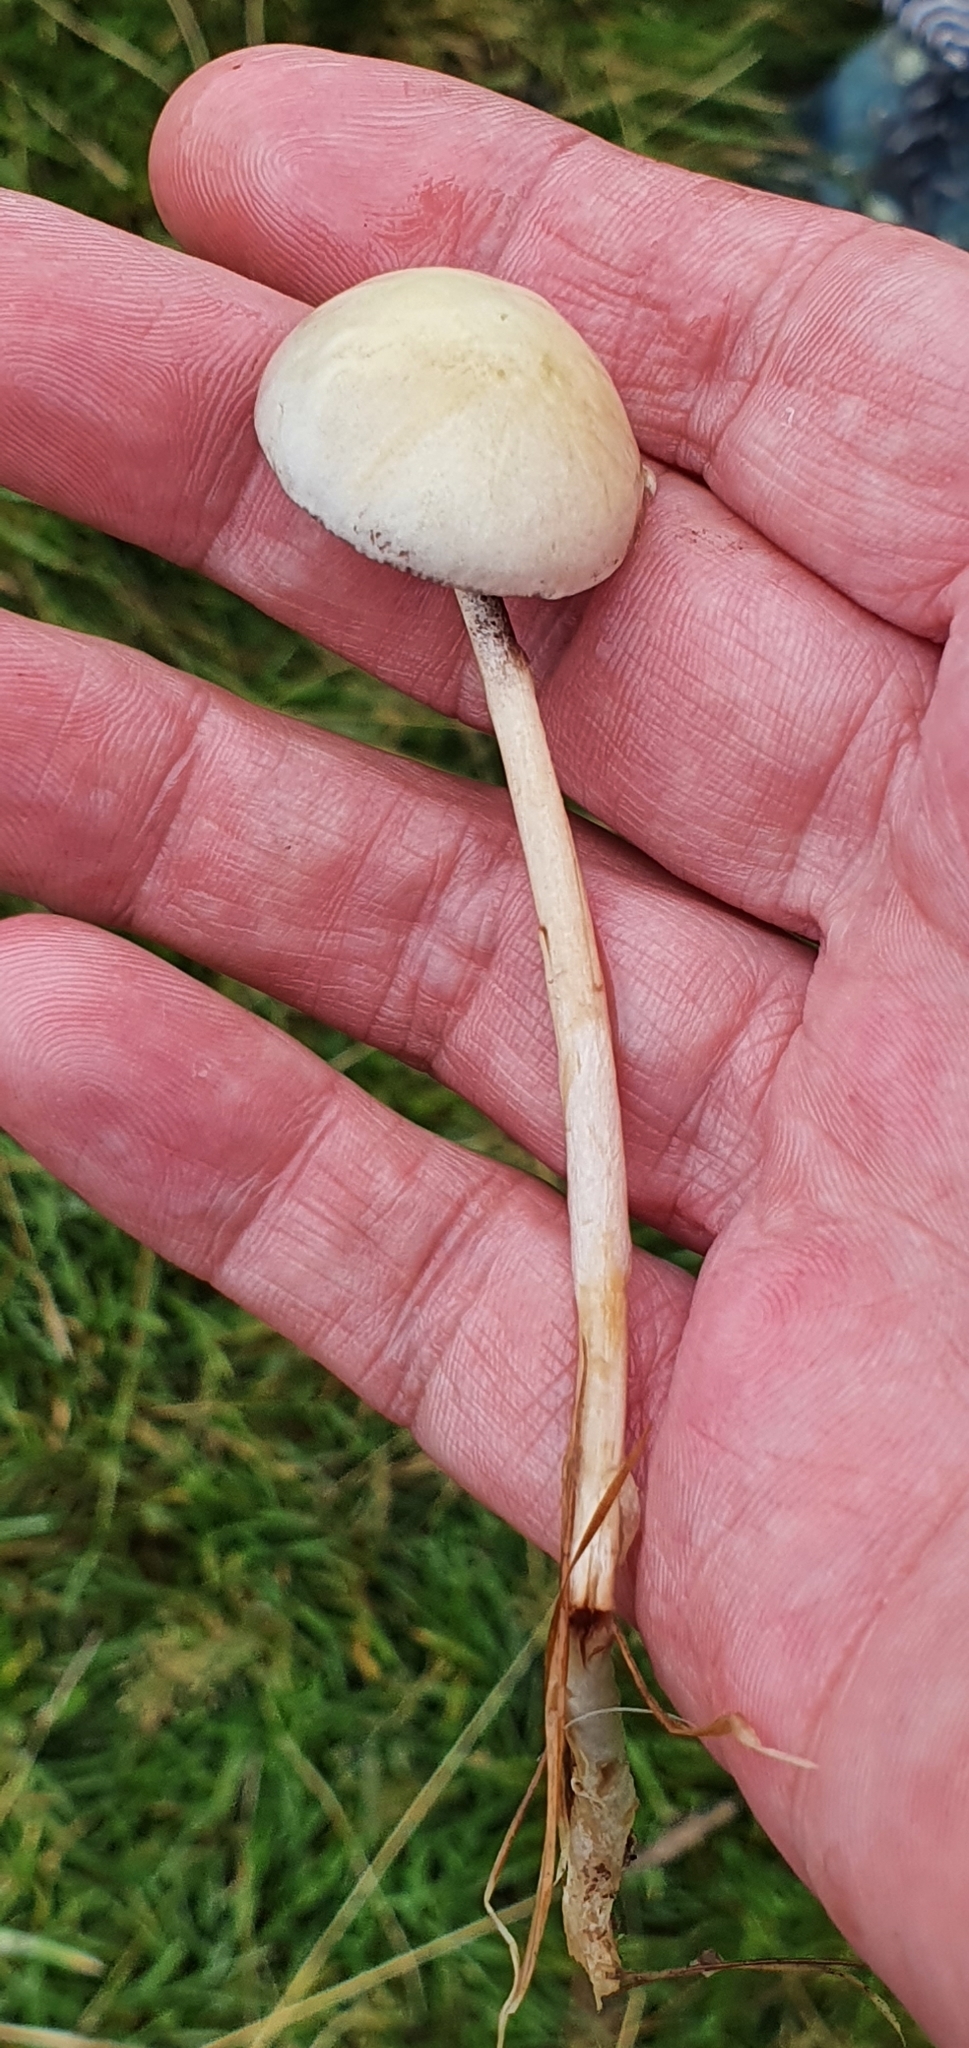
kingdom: Fungi
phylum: Basidiomycota
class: Agaricomycetes
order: Agaricales
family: Strophariaceae
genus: Protostropharia
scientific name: Protostropharia semiglobata
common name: Dung roundhead
